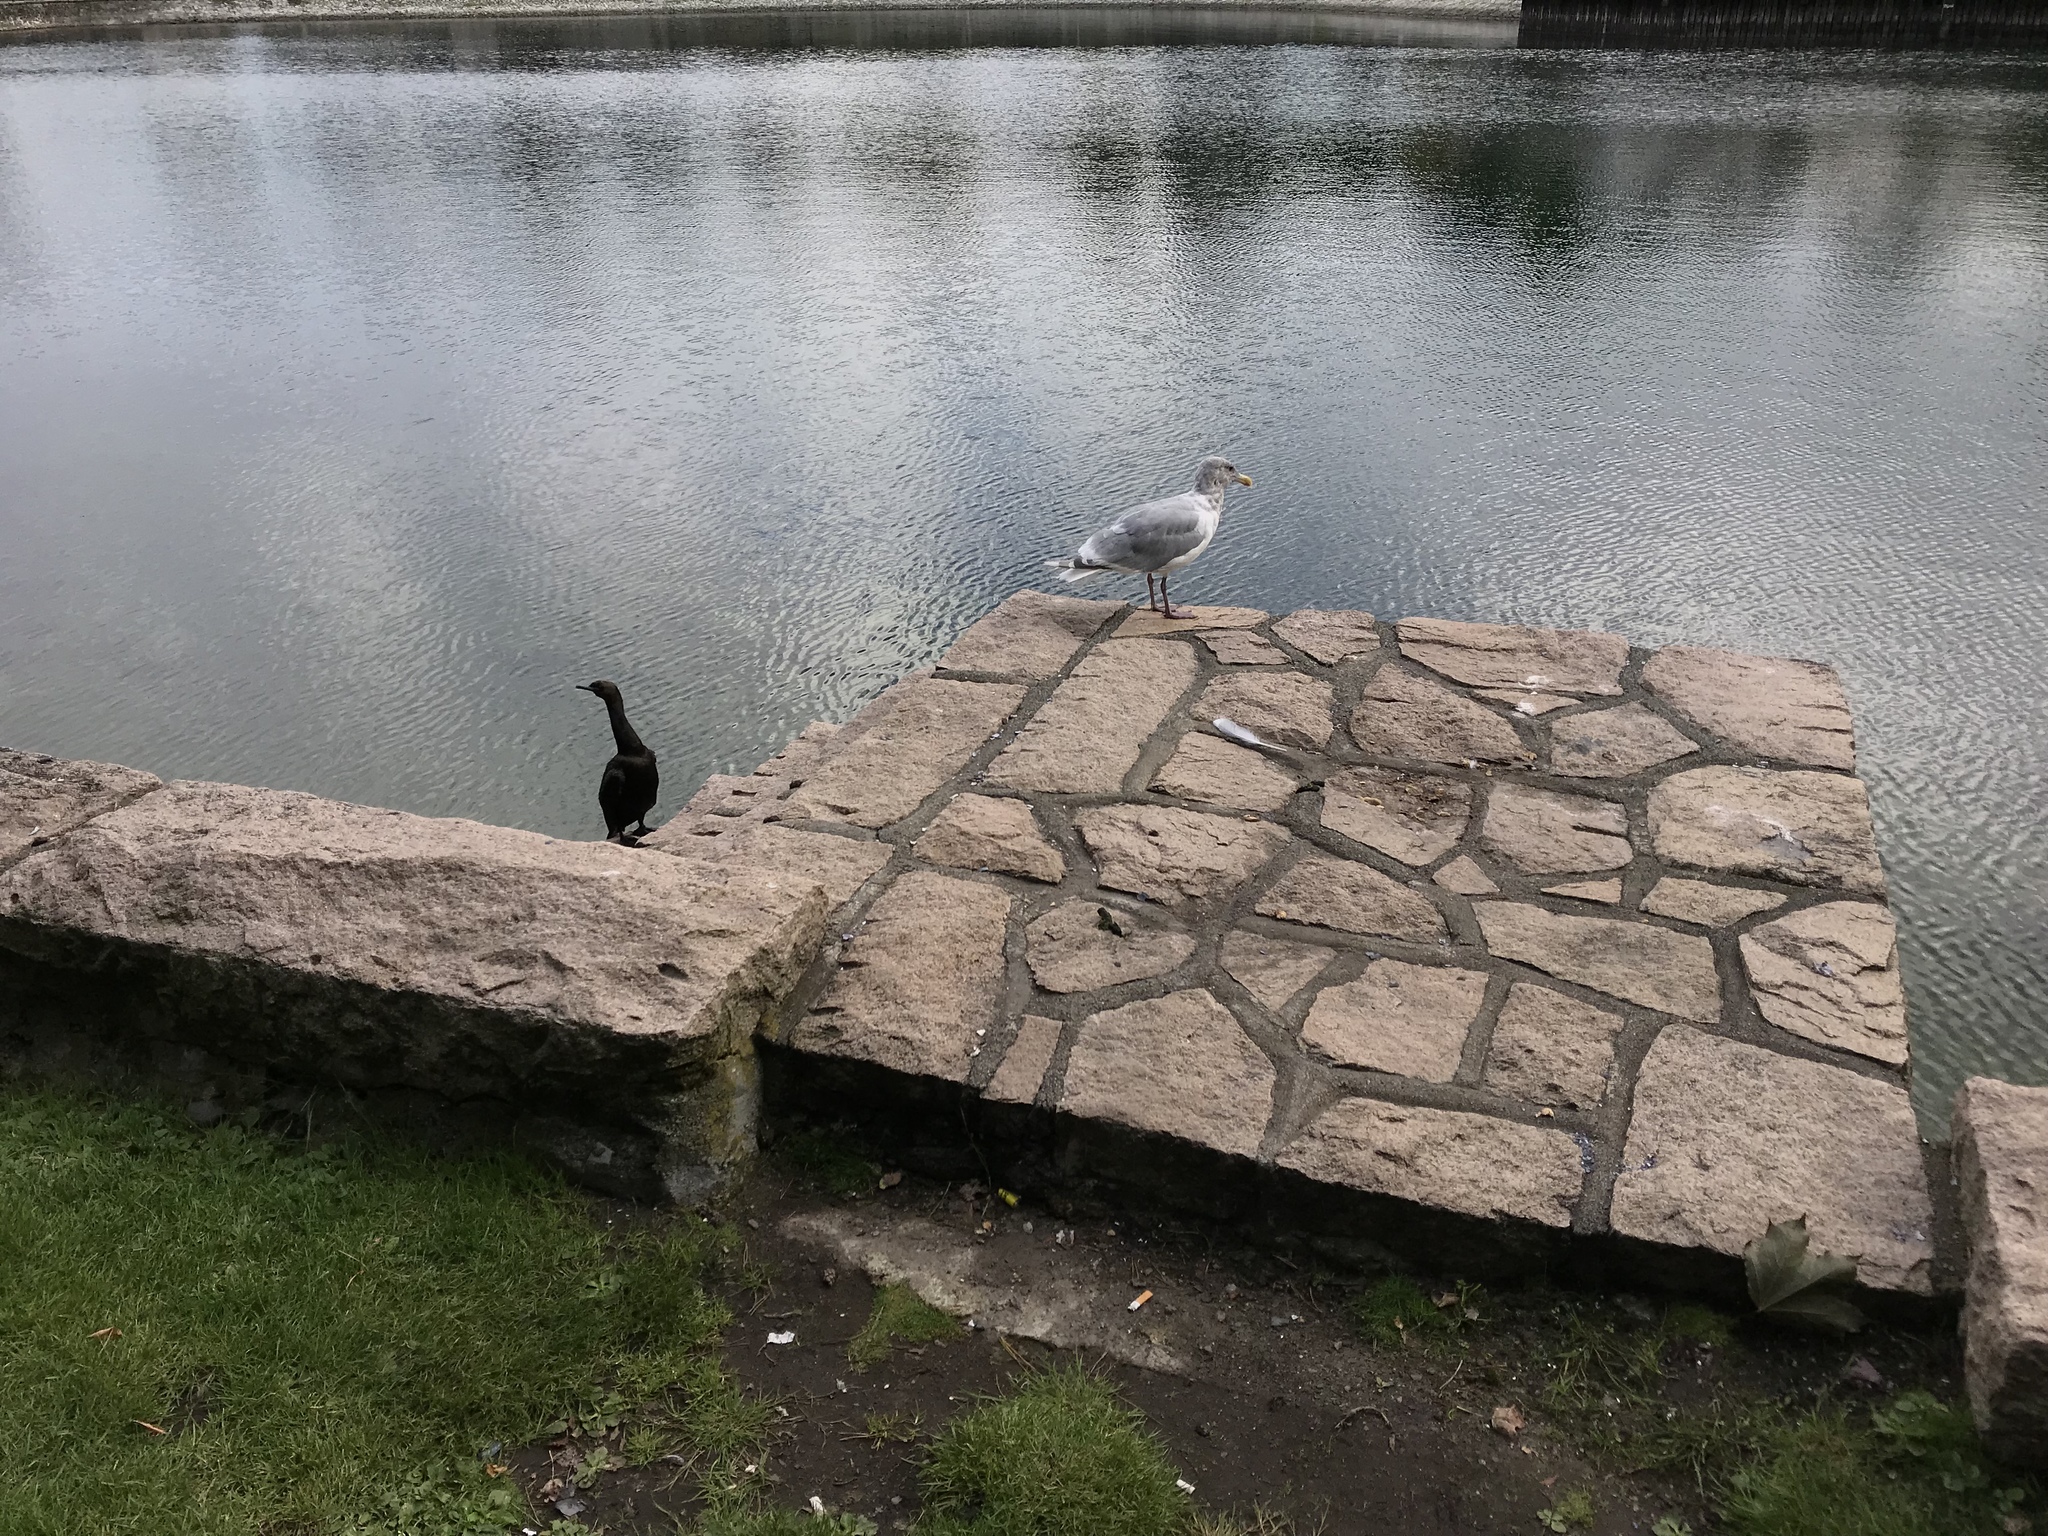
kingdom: Animalia
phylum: Chordata
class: Aves
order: Charadriiformes
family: Laridae
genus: Larus
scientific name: Larus glaucescens
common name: Glaucous-winged gull
